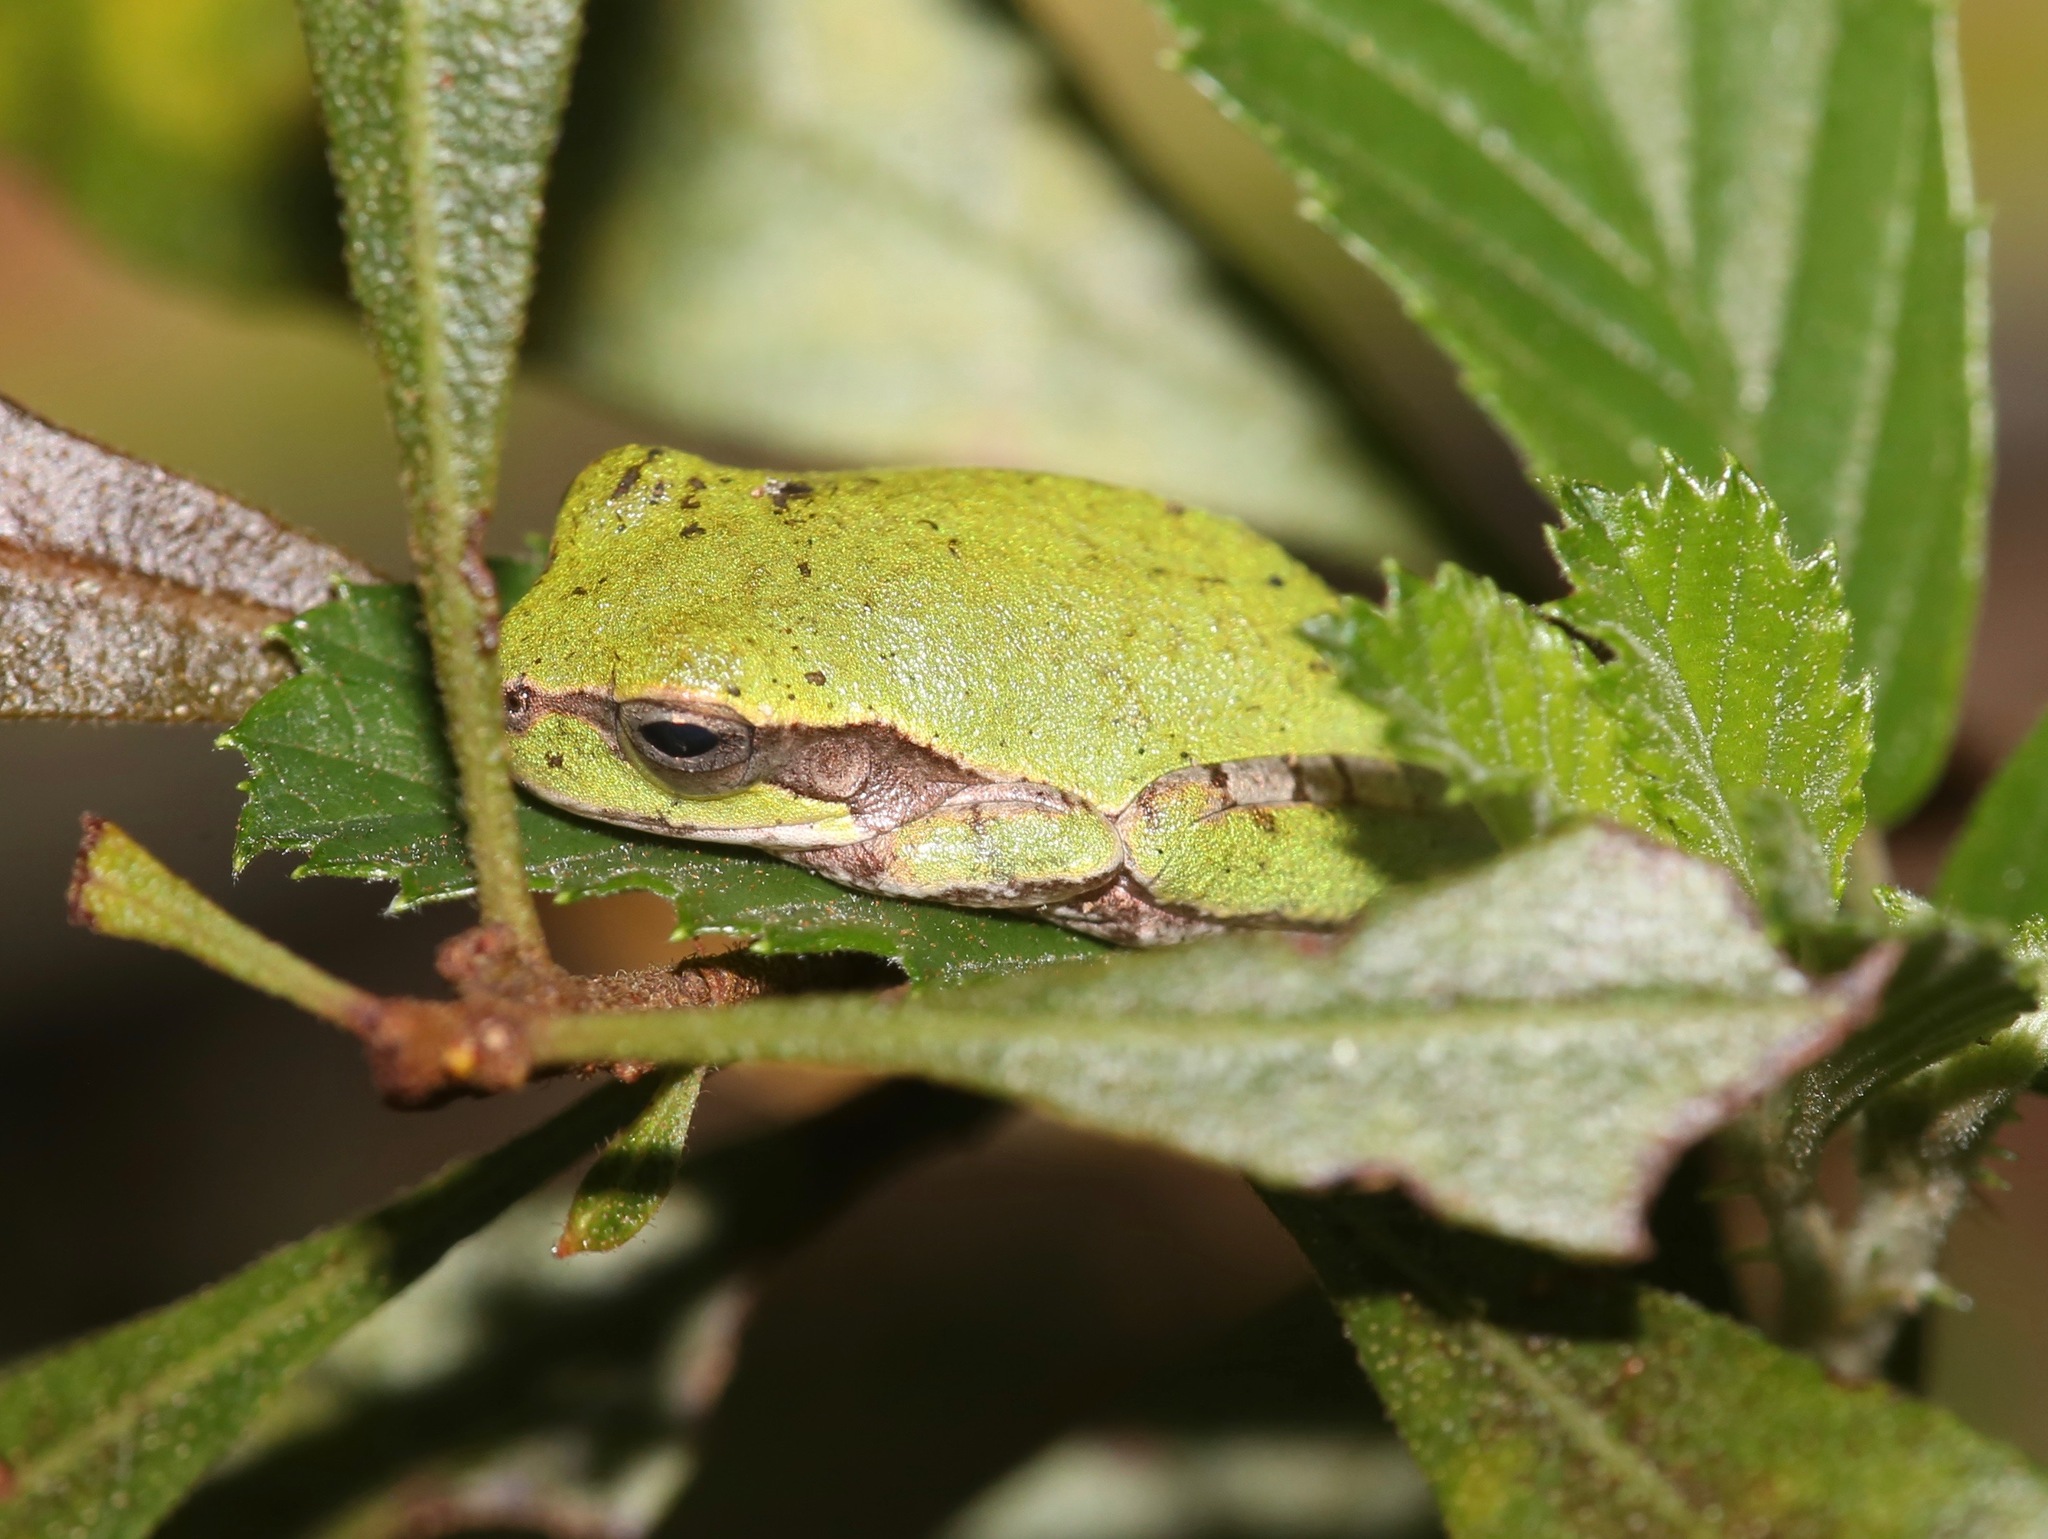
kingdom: Animalia
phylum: Chordata
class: Amphibia
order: Anura
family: Hylidae
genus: Hyla
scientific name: Hyla femoralis
